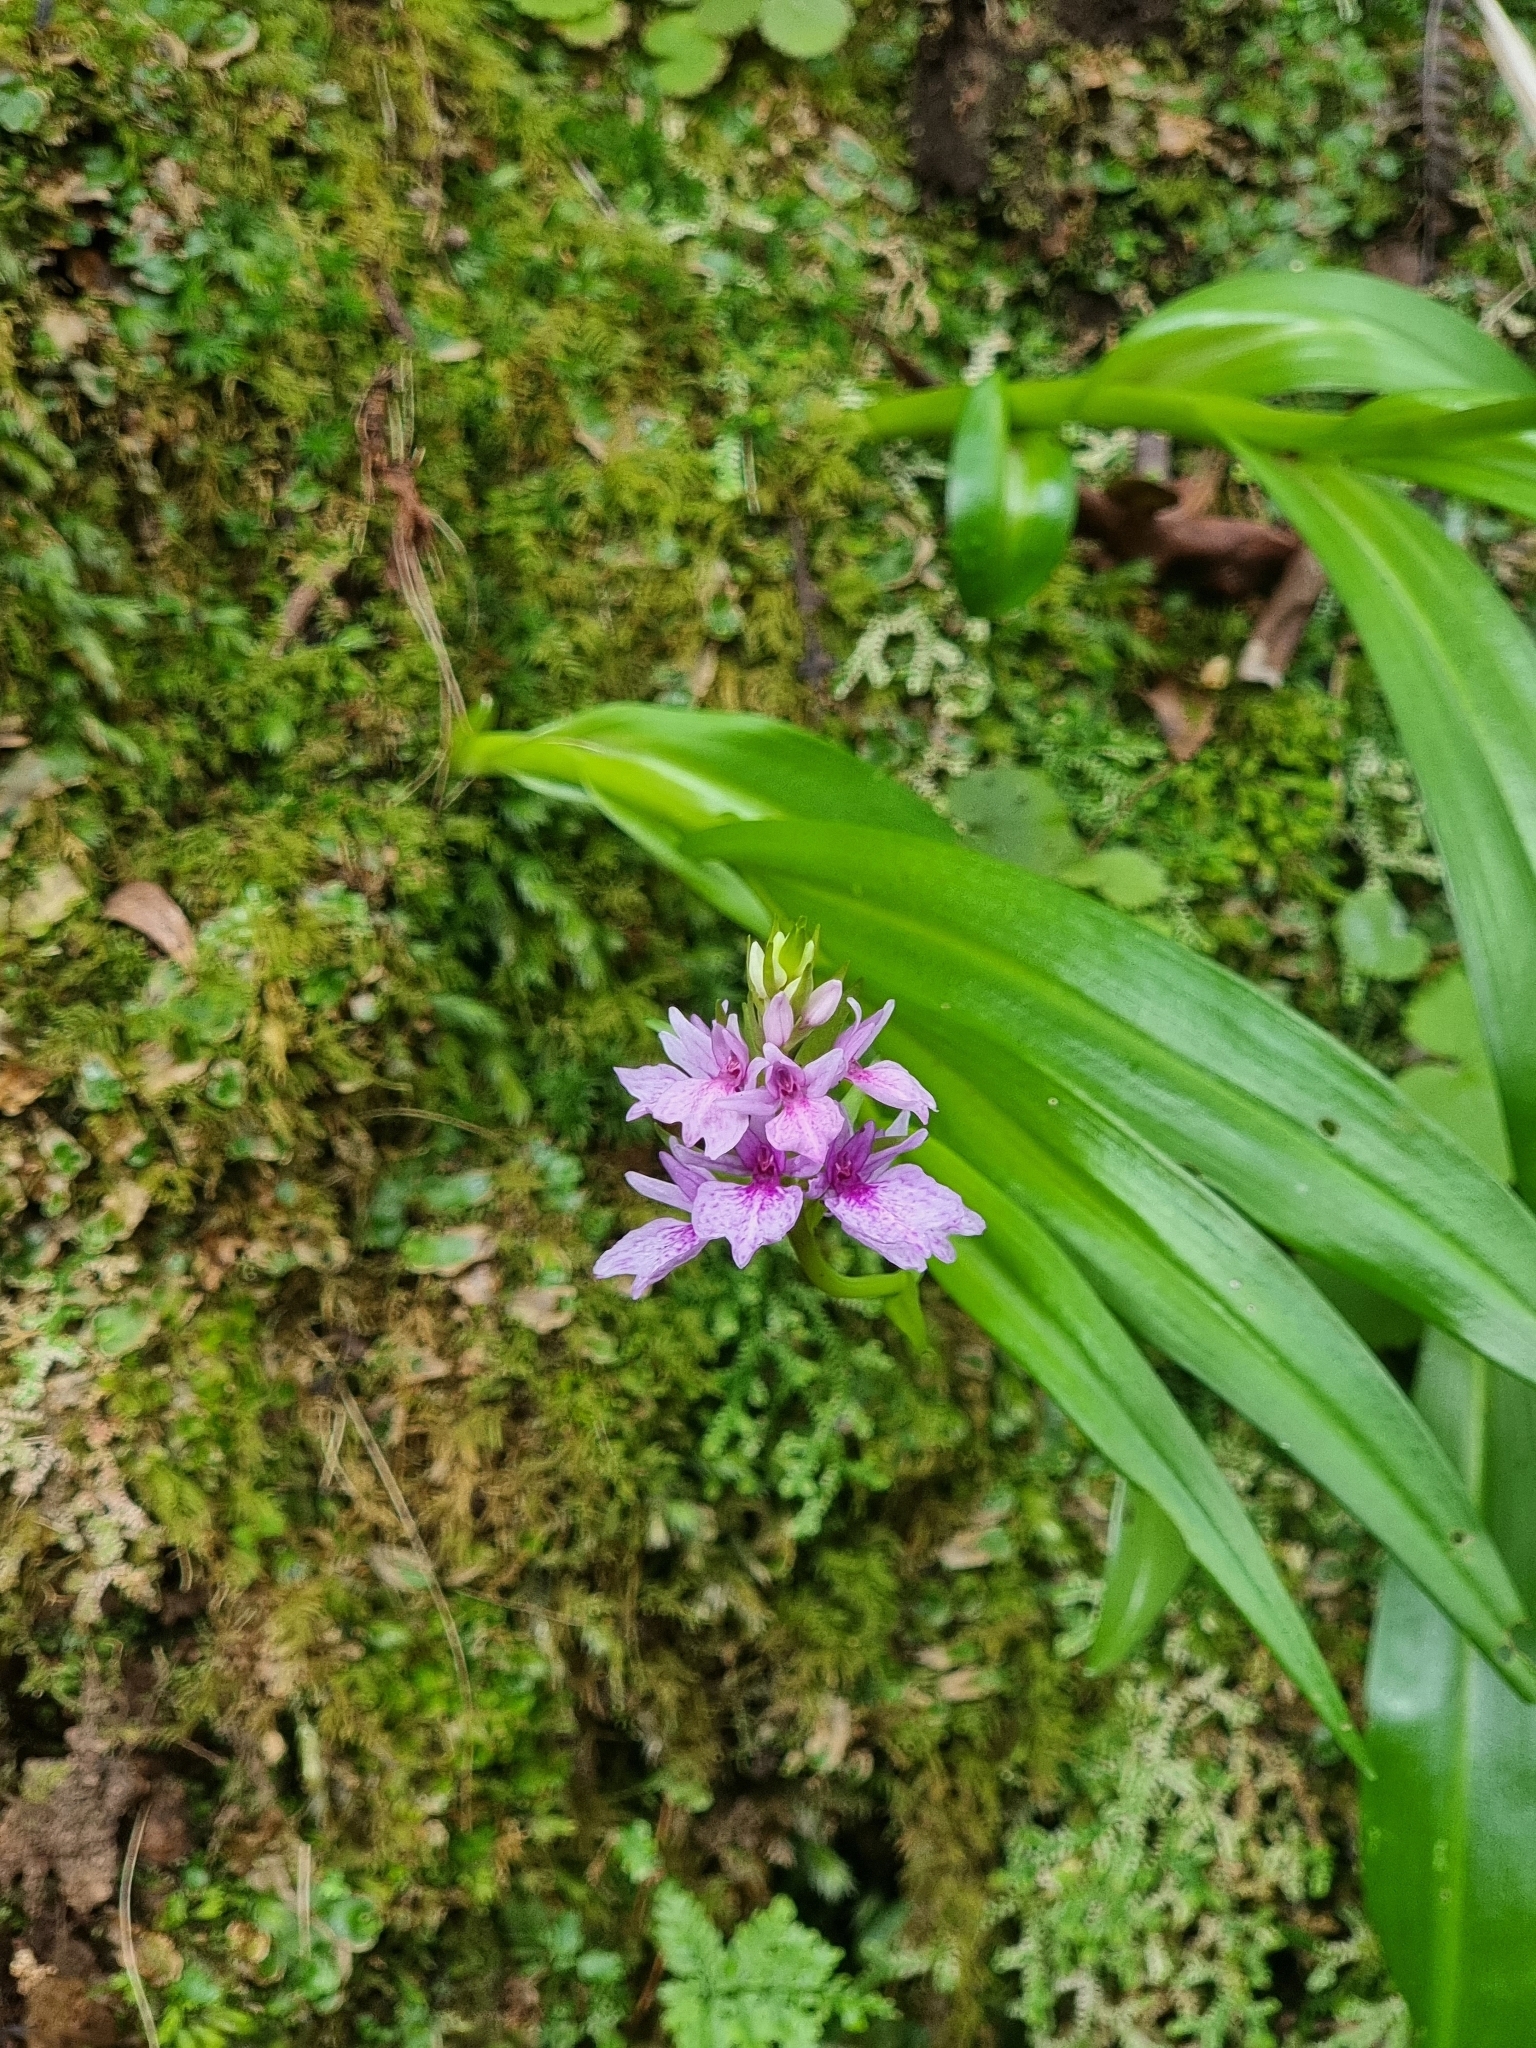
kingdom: Plantae
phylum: Tracheophyta
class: Liliopsida
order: Asparagales
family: Orchidaceae
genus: Dactylorhiza
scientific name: Dactylorhiza foliosa
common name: Richly-leaved dactylorhiza
